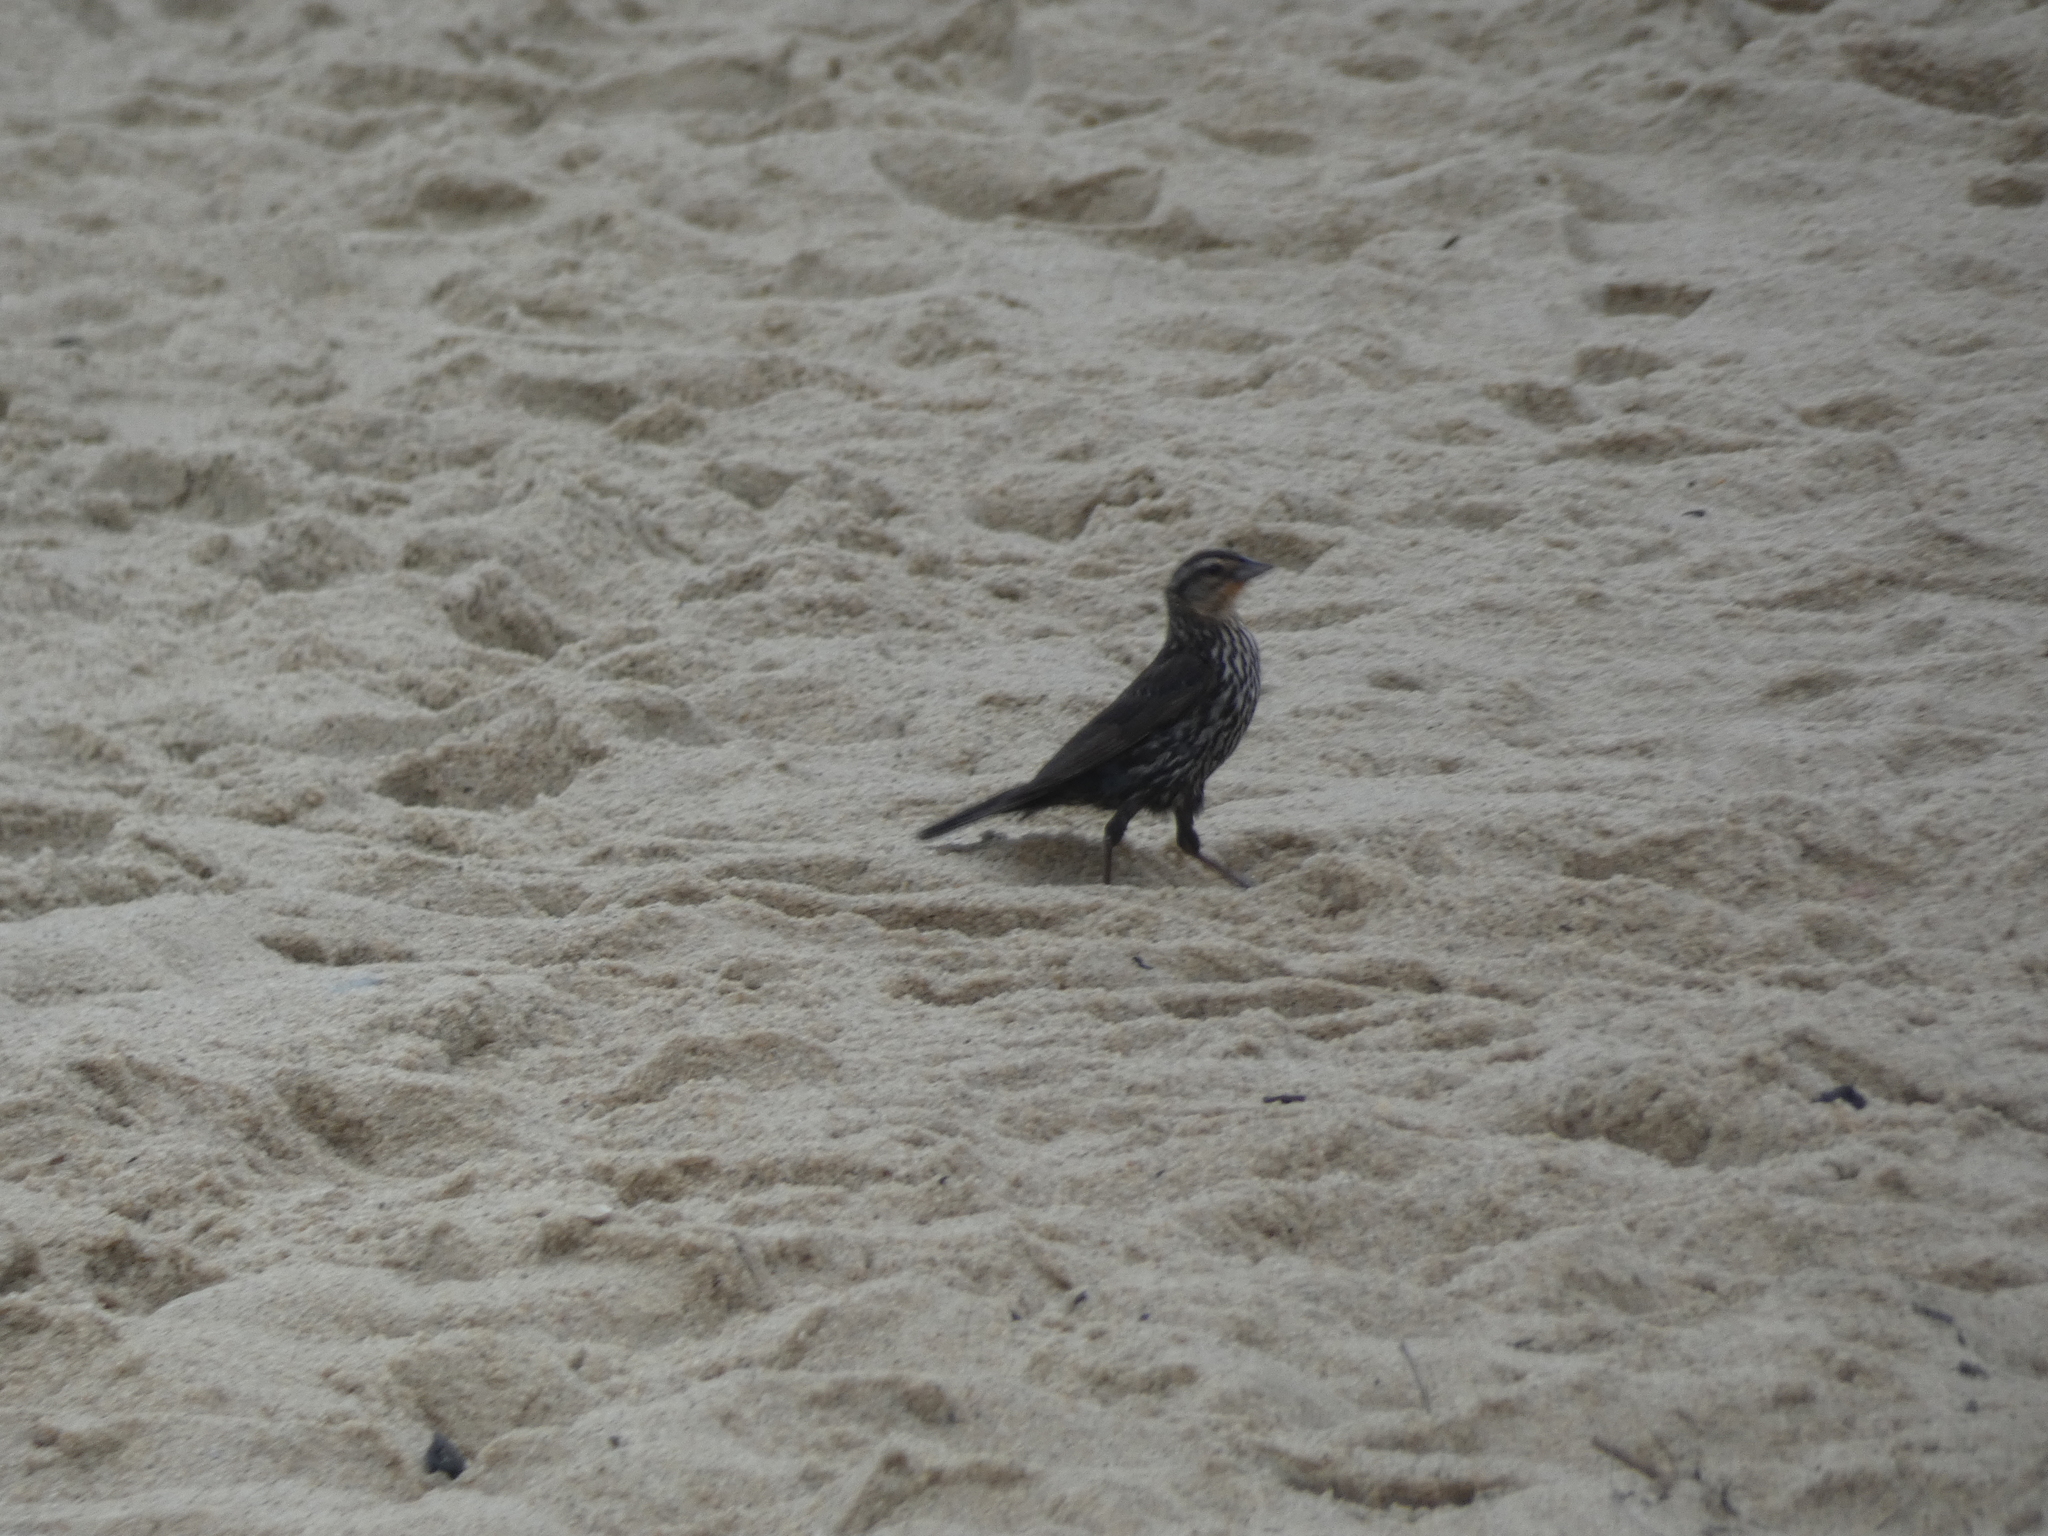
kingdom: Animalia
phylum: Chordata
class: Aves
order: Passeriformes
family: Icteridae
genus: Agelaius
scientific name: Agelaius phoeniceus
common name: Red-winged blackbird
